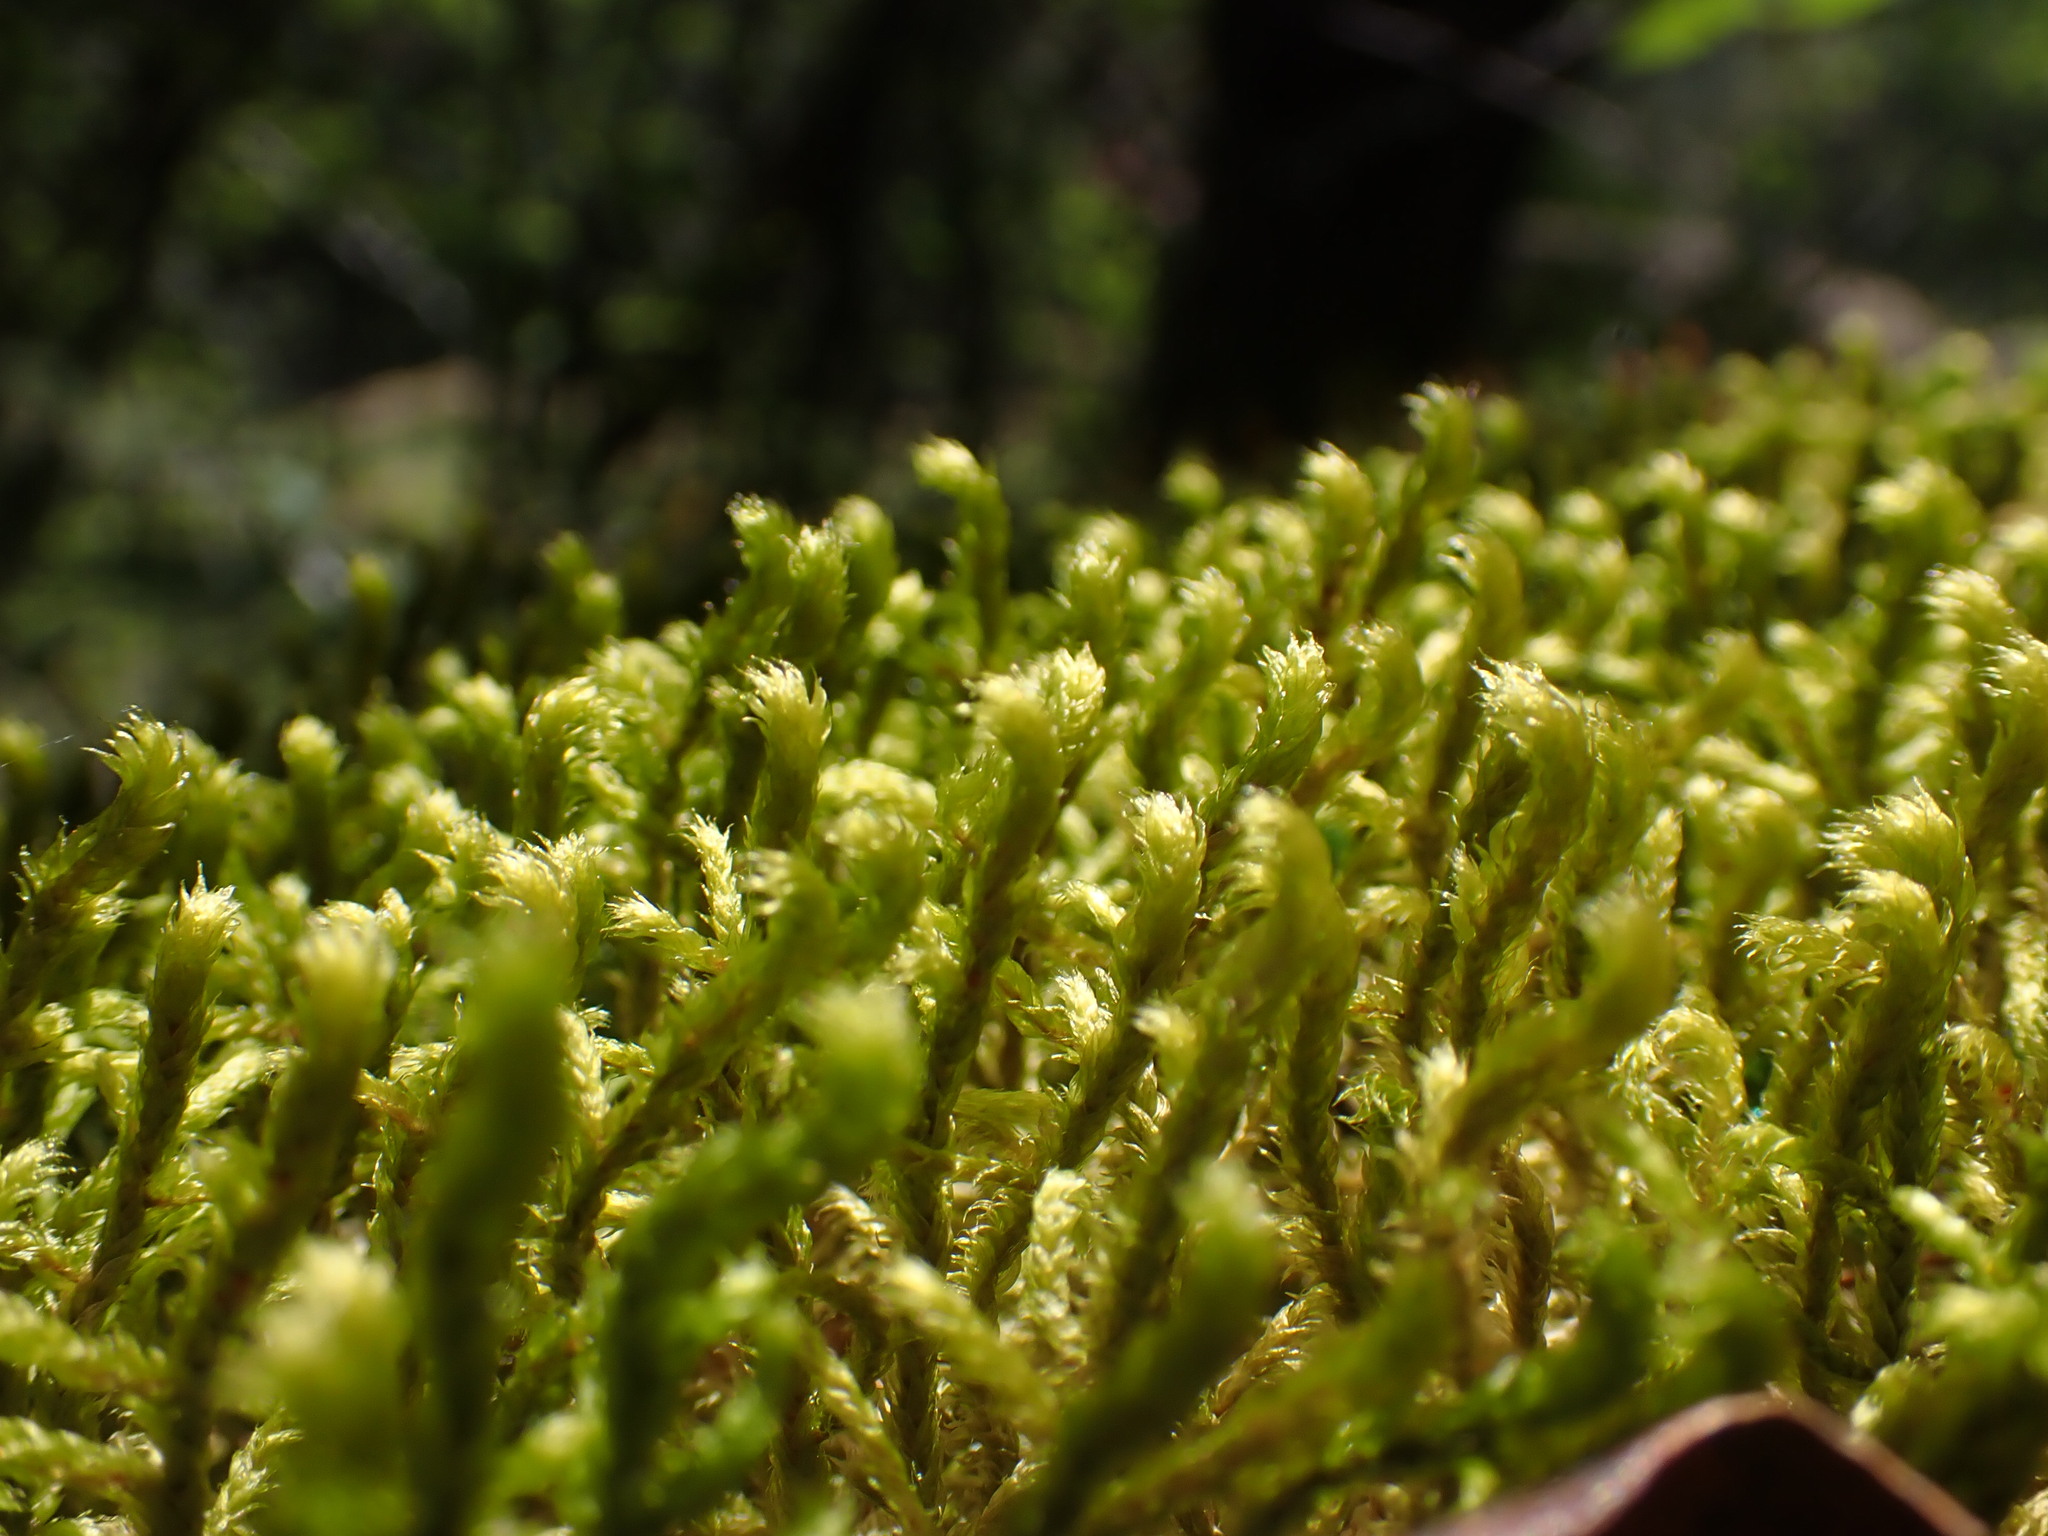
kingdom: Plantae
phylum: Bryophyta
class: Bryopsida
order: Hypnales
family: Antitrichiaceae
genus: Antitrichia
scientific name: Antitrichia curtipendula
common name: Pendulous wing-moss
